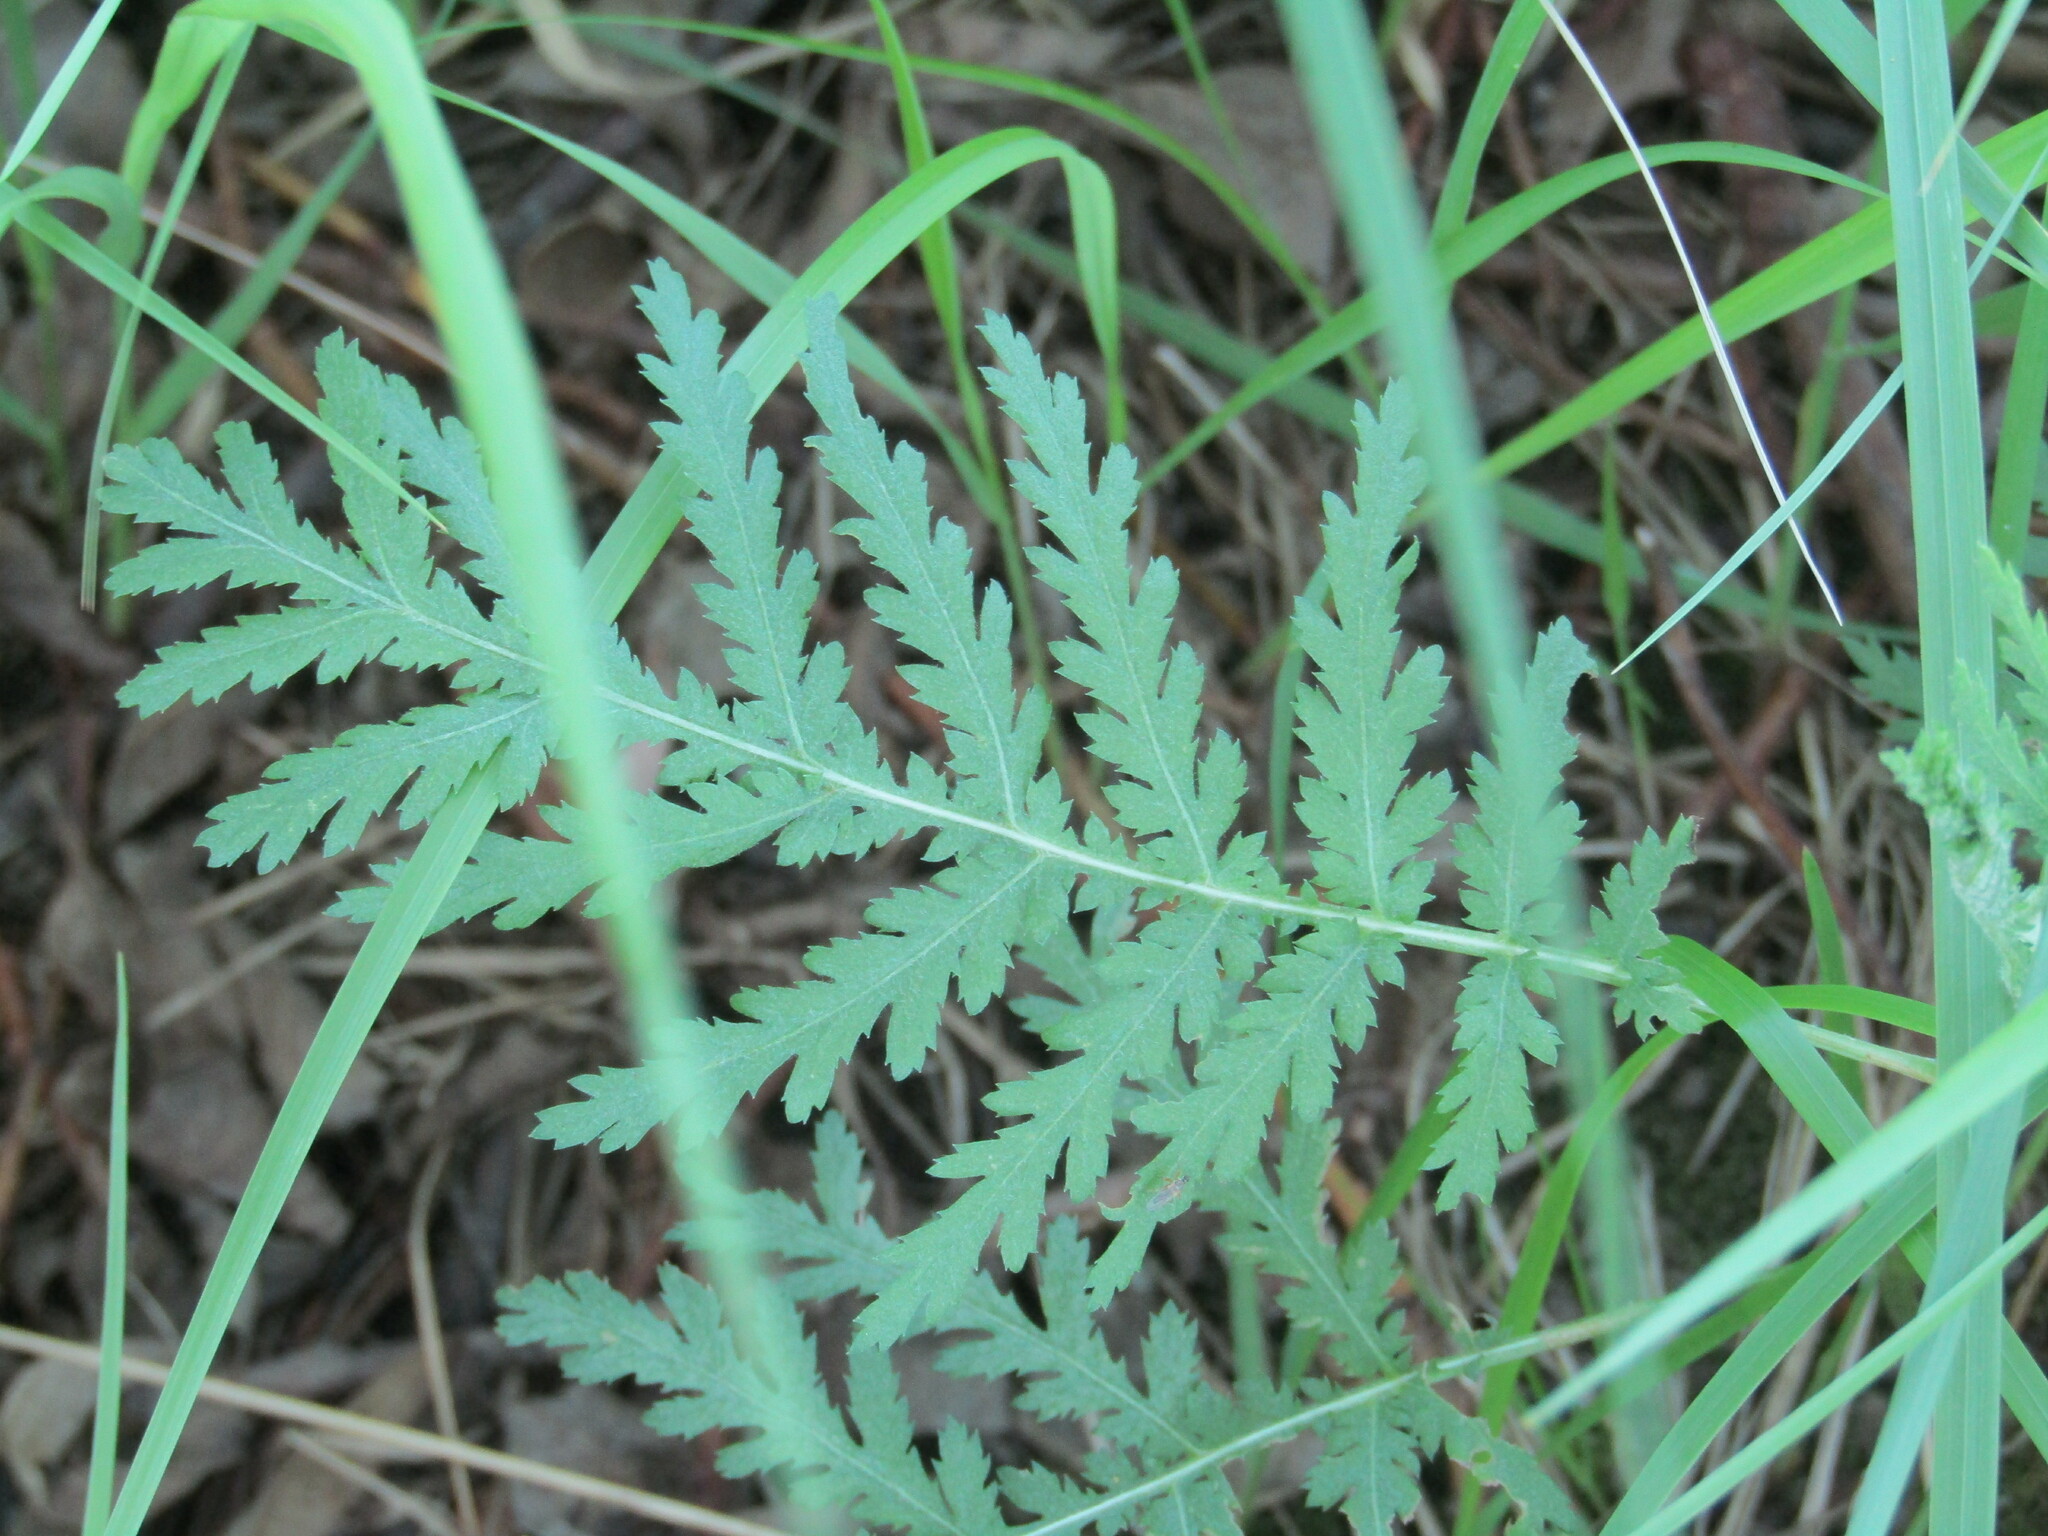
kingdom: Plantae
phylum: Tracheophyta
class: Magnoliopsida
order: Asterales
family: Asteraceae
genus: Tanacetum
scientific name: Tanacetum vulgare
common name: Common tansy
